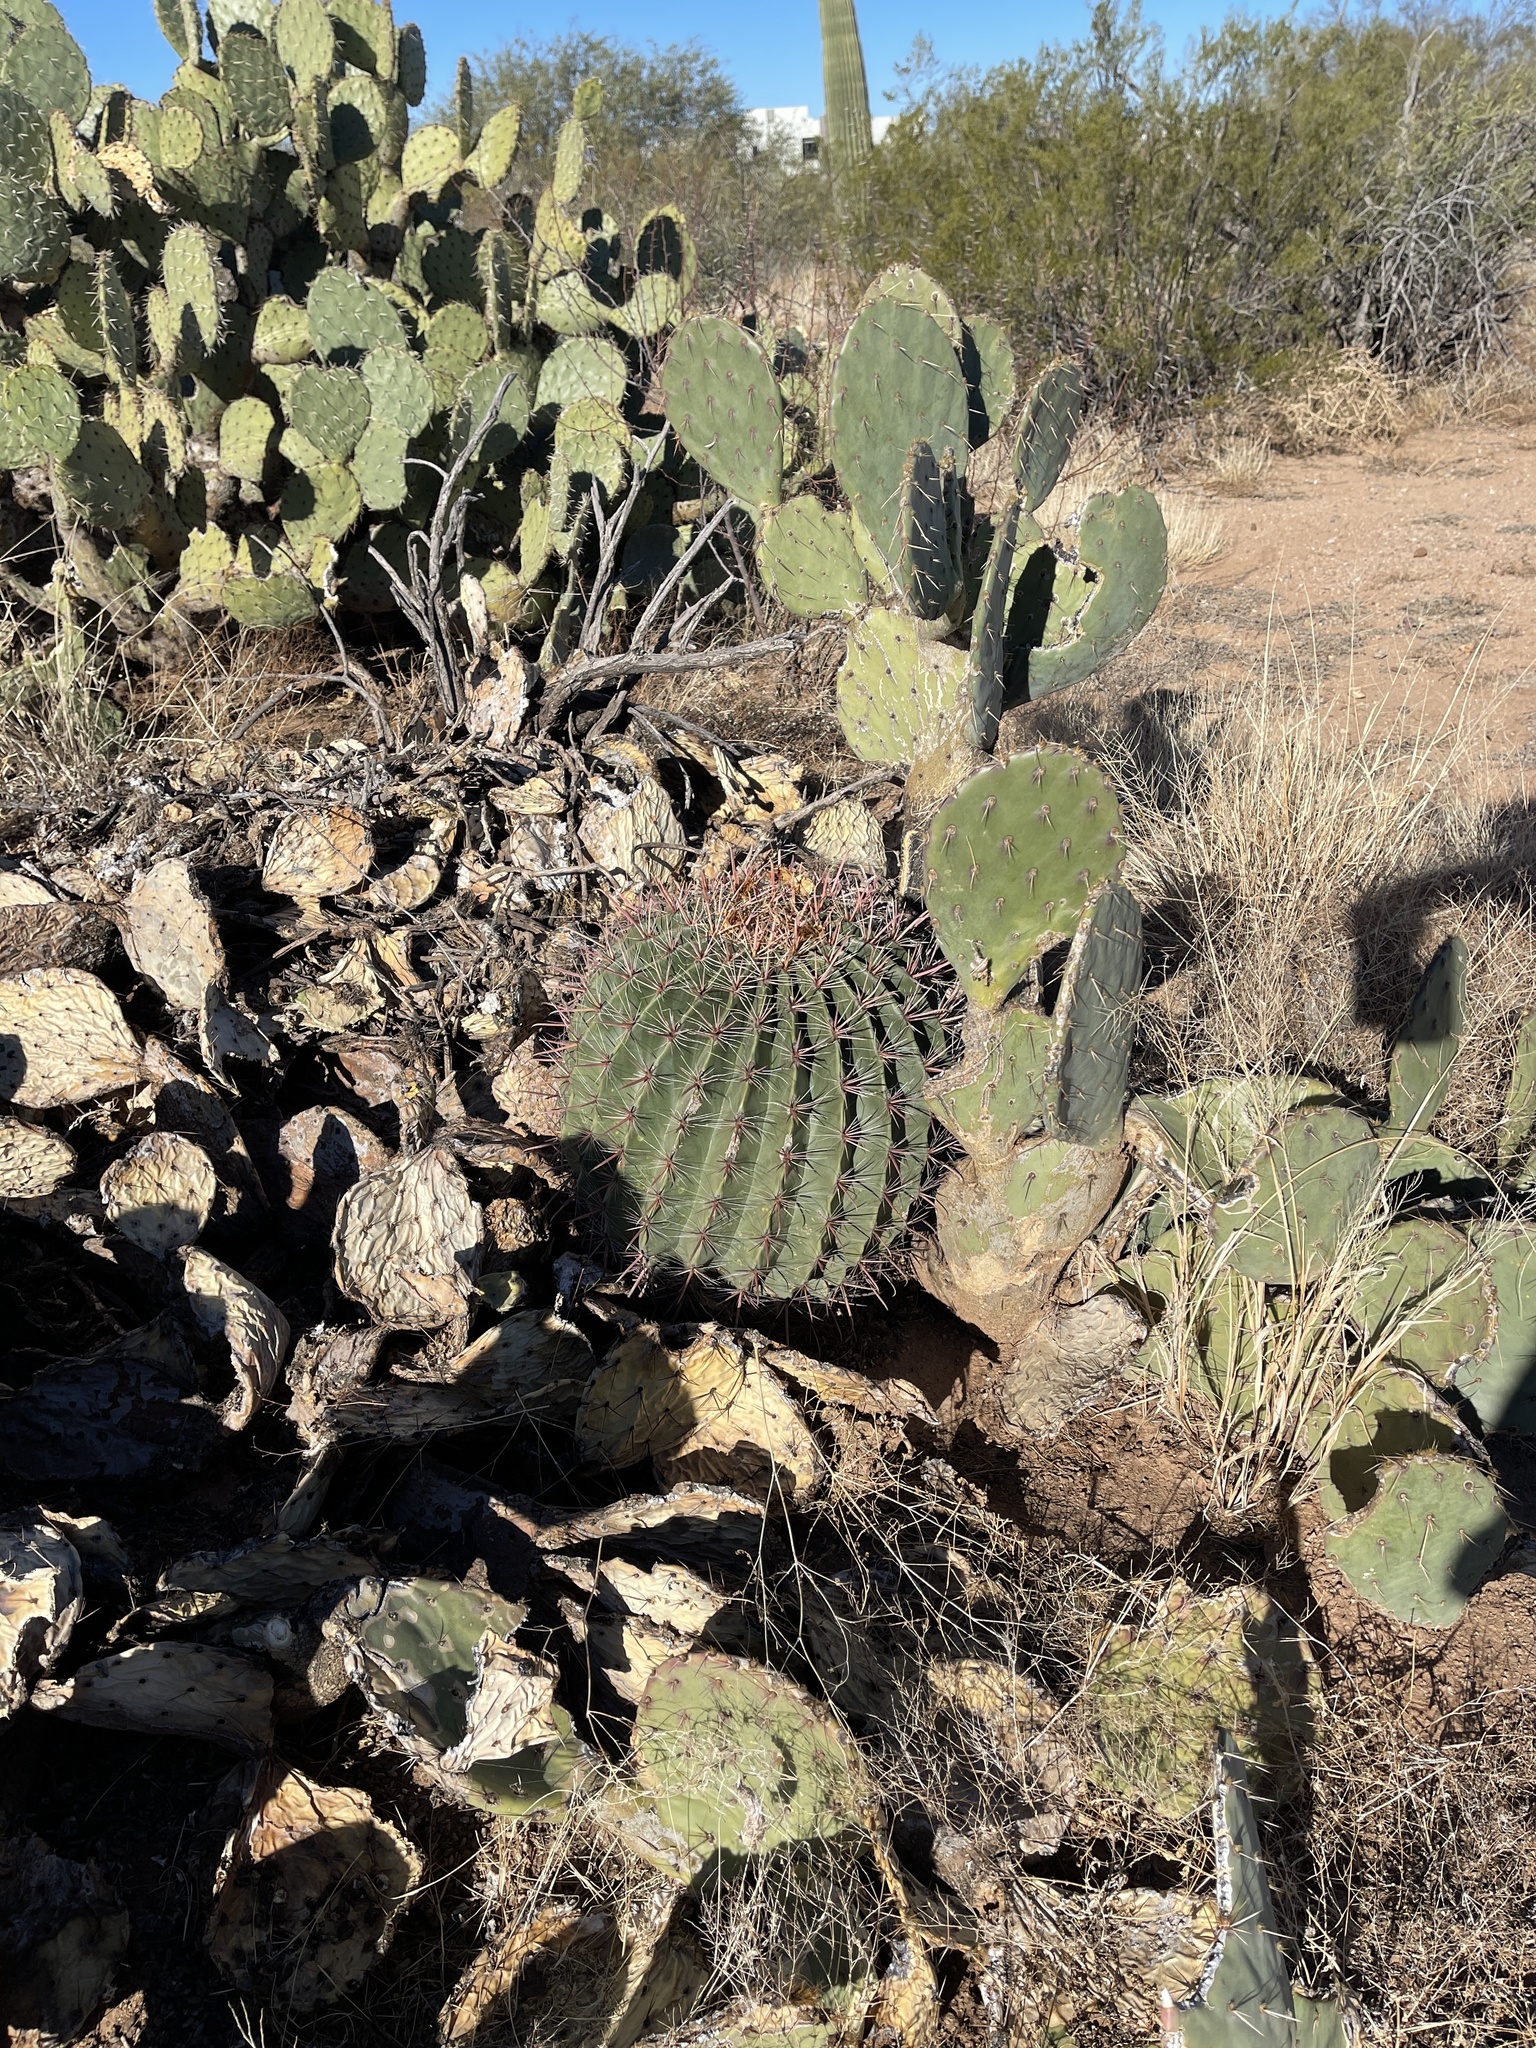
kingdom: Plantae
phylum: Tracheophyta
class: Magnoliopsida
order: Caryophyllales
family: Cactaceae
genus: Ferocactus
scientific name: Ferocactus wislizeni
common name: Candy barrel cactus
